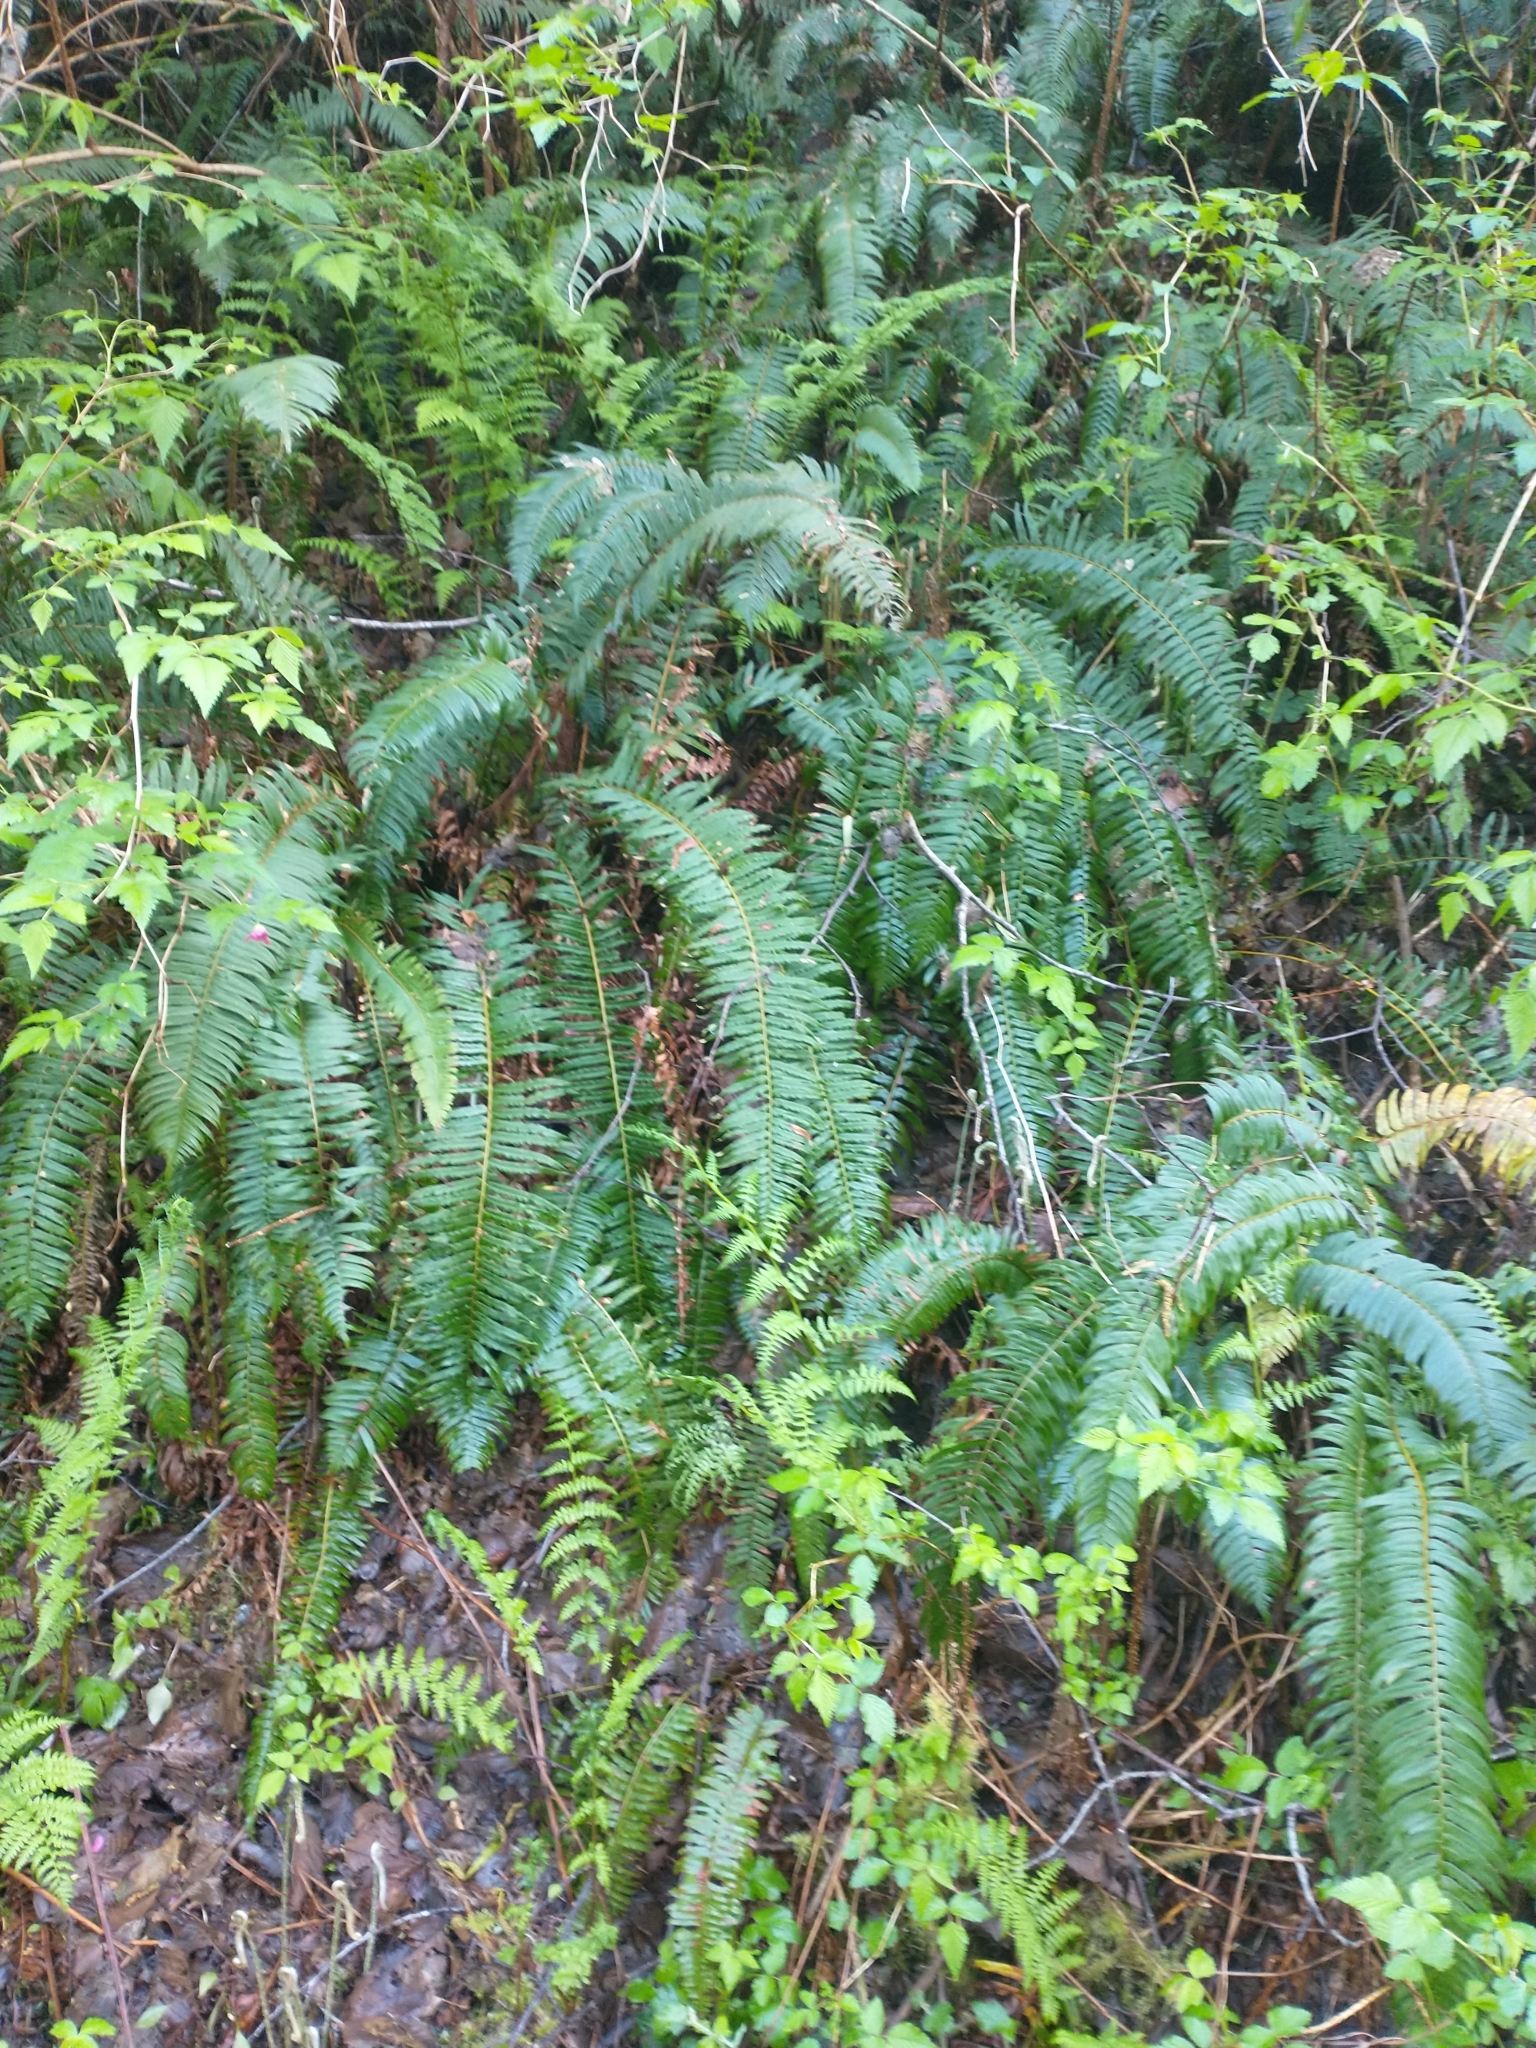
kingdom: Plantae
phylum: Tracheophyta
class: Polypodiopsida
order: Polypodiales
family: Dryopteridaceae
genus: Polystichum
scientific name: Polystichum munitum
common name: Western sword-fern
